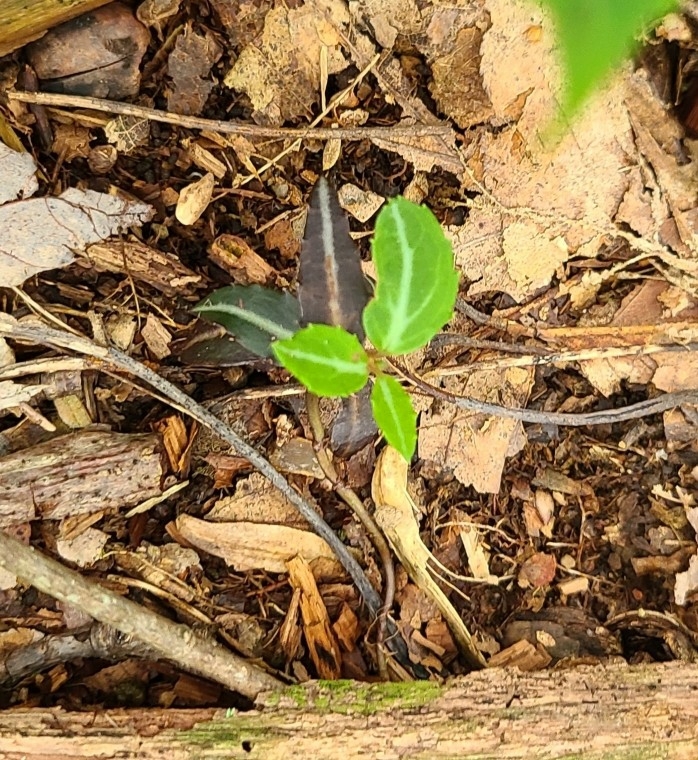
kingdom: Plantae
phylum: Tracheophyta
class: Magnoliopsida
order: Ericales
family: Ericaceae
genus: Chimaphila
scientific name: Chimaphila maculata
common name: Spotted pipsissewa
